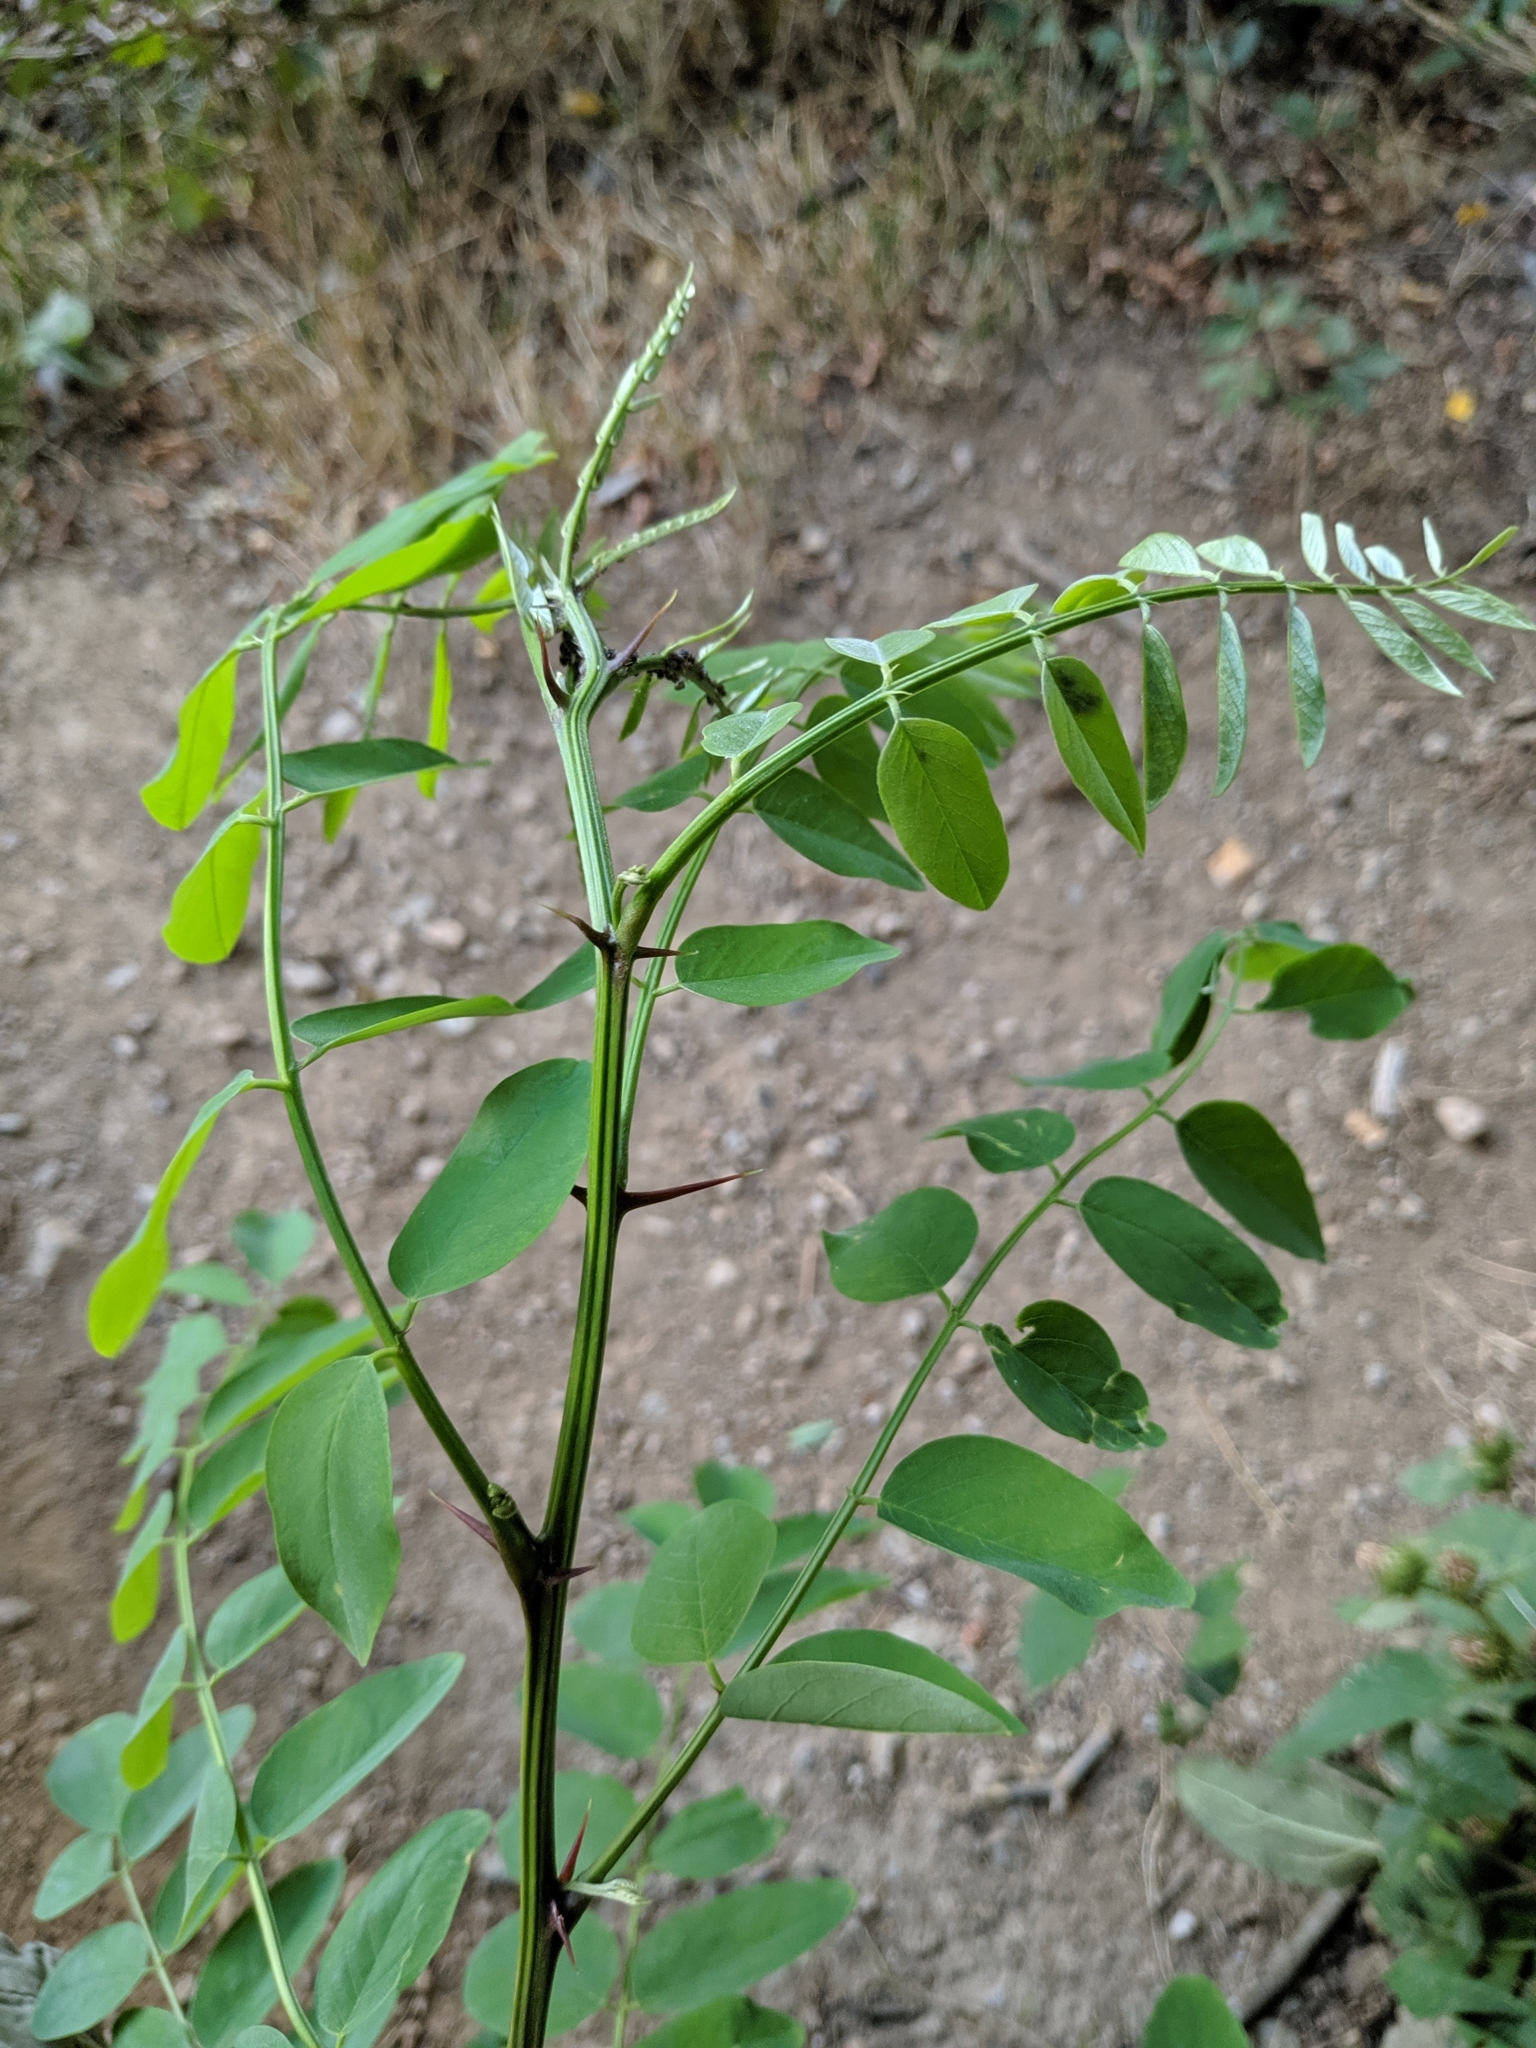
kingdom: Plantae
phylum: Tracheophyta
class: Magnoliopsida
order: Fabales
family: Fabaceae
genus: Robinia
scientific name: Robinia pseudoacacia
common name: Black locust
